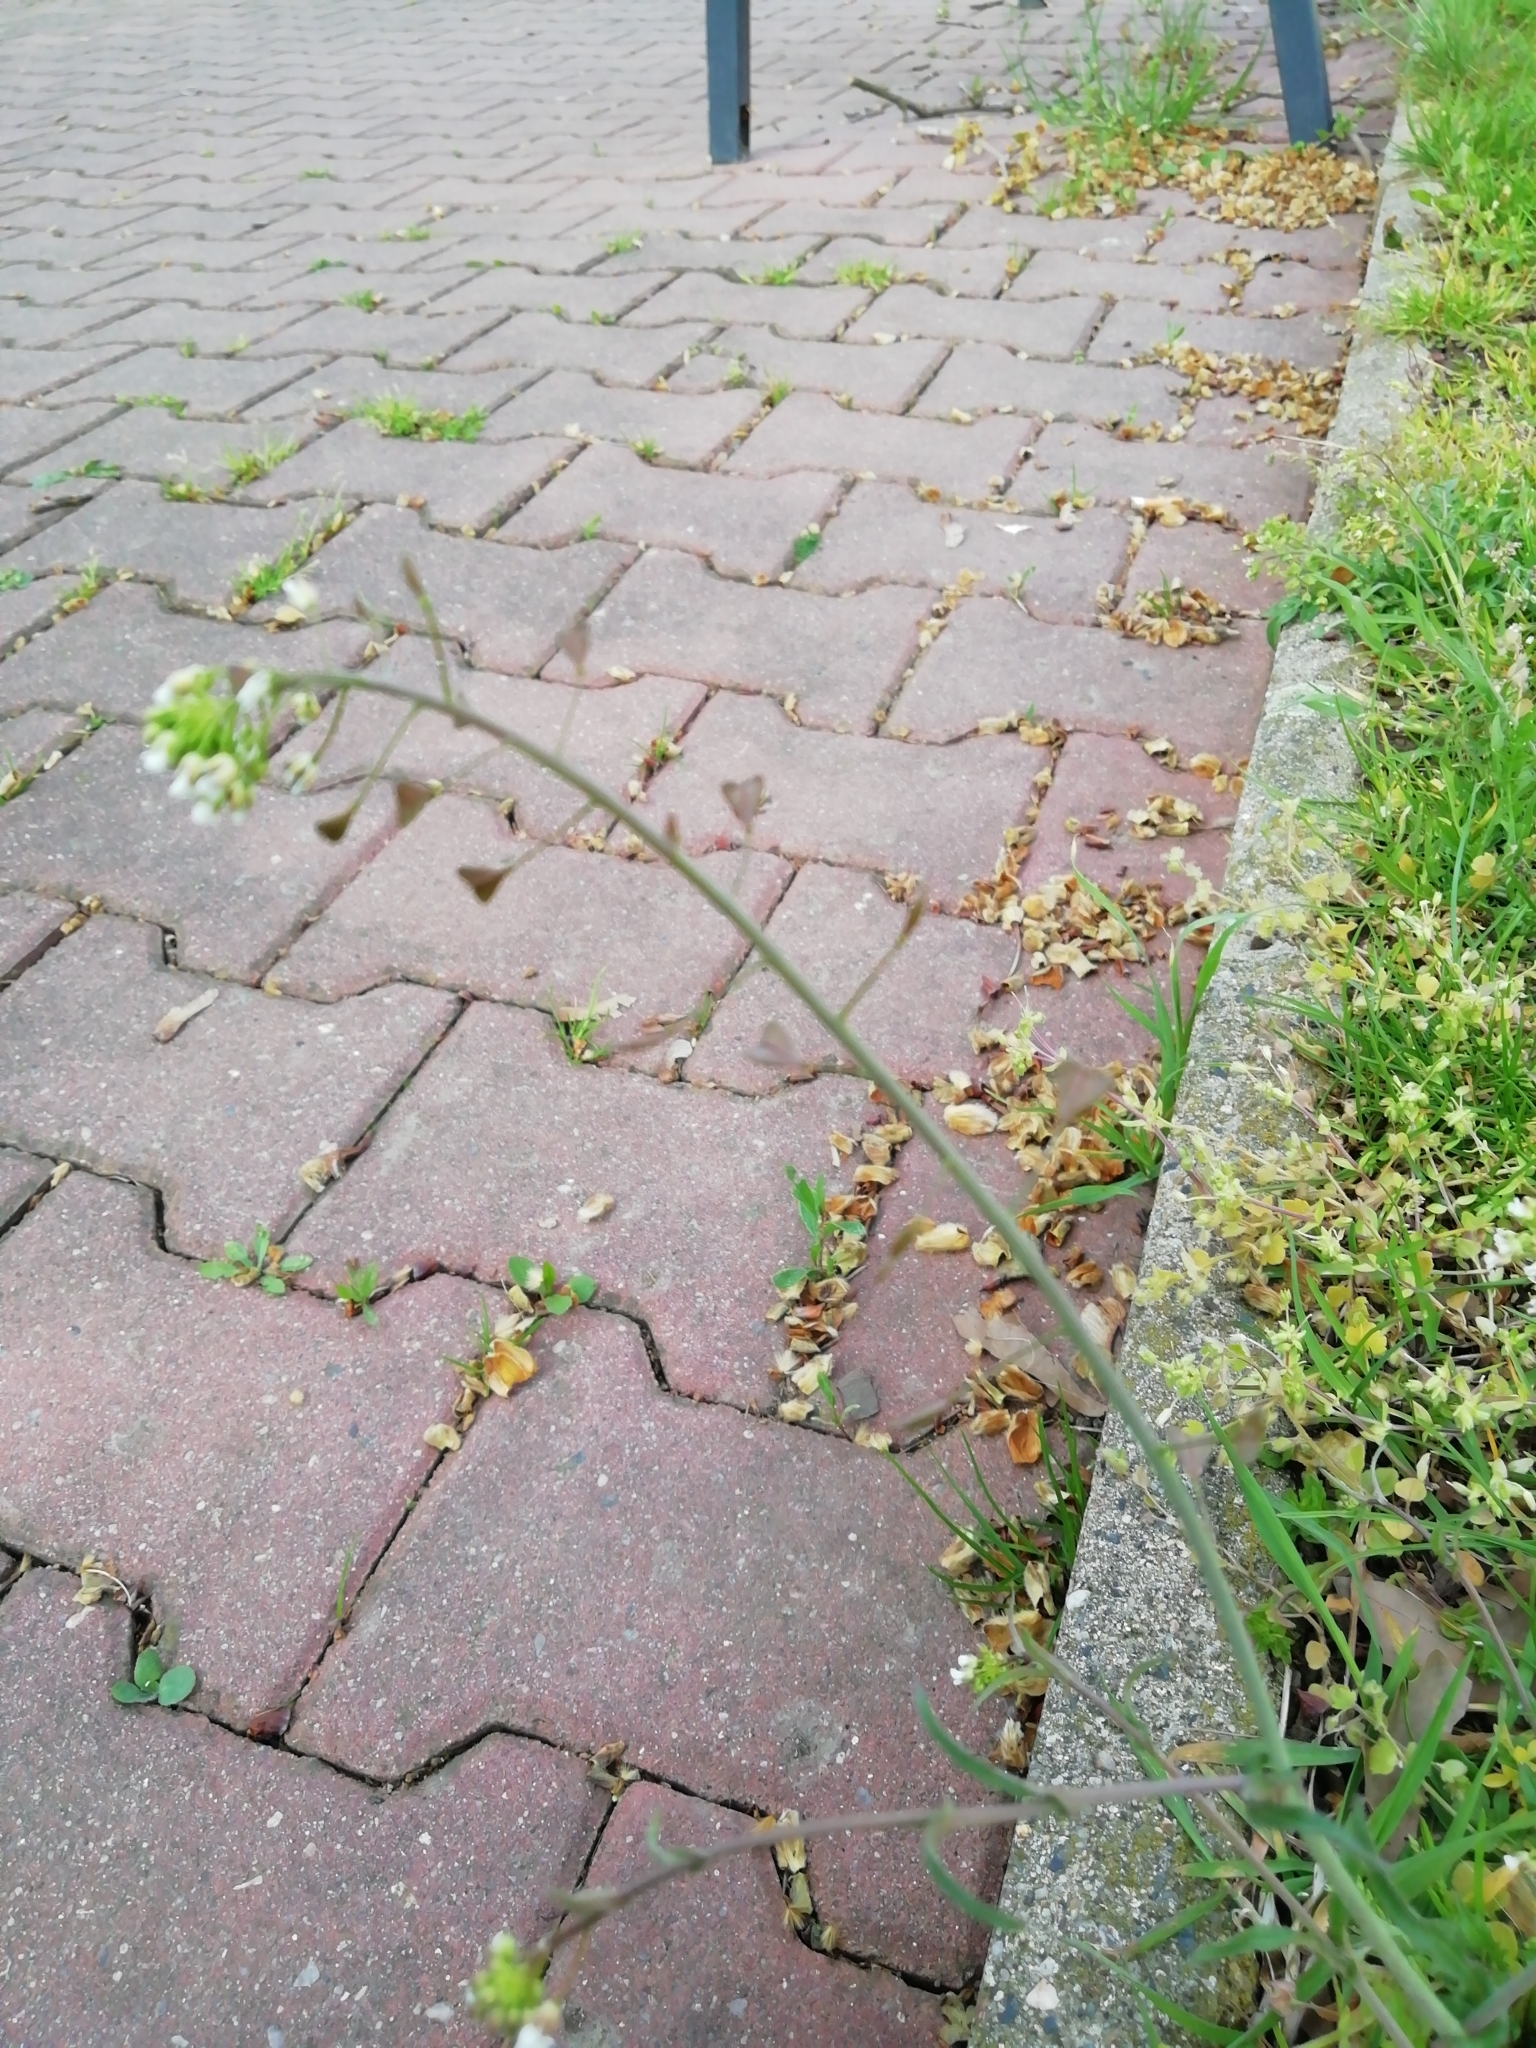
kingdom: Plantae
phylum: Tracheophyta
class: Magnoliopsida
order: Brassicales
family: Brassicaceae
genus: Capsella
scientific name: Capsella bursa-pastoris
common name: Shepherd's purse
